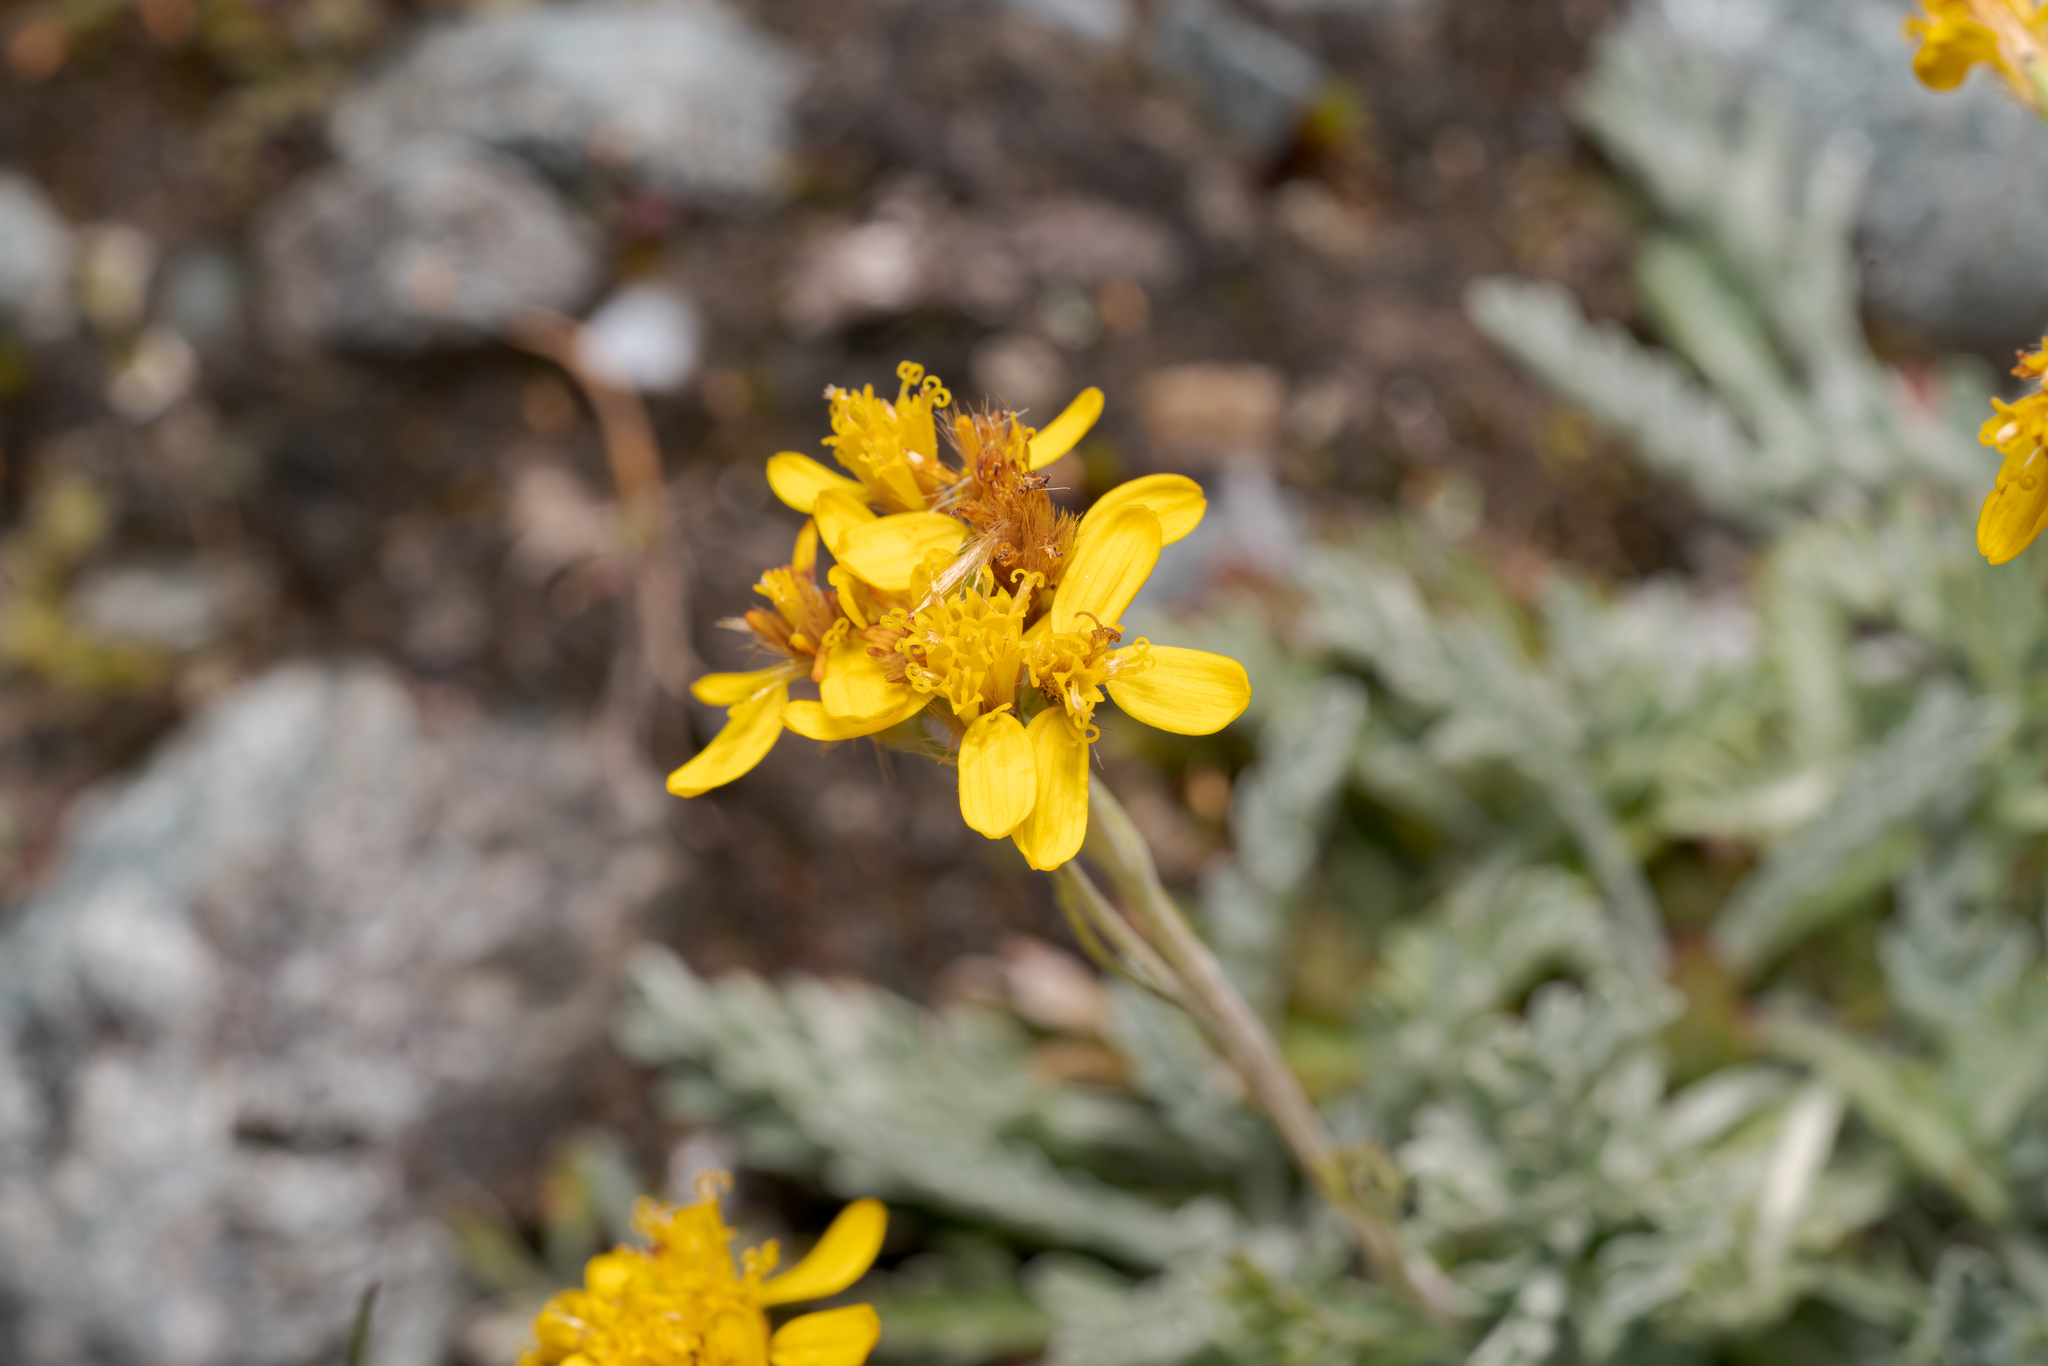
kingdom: Plantae
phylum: Tracheophyta
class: Magnoliopsida
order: Asterales
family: Asteraceae
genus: Jacobaea
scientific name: Jacobaea incana
